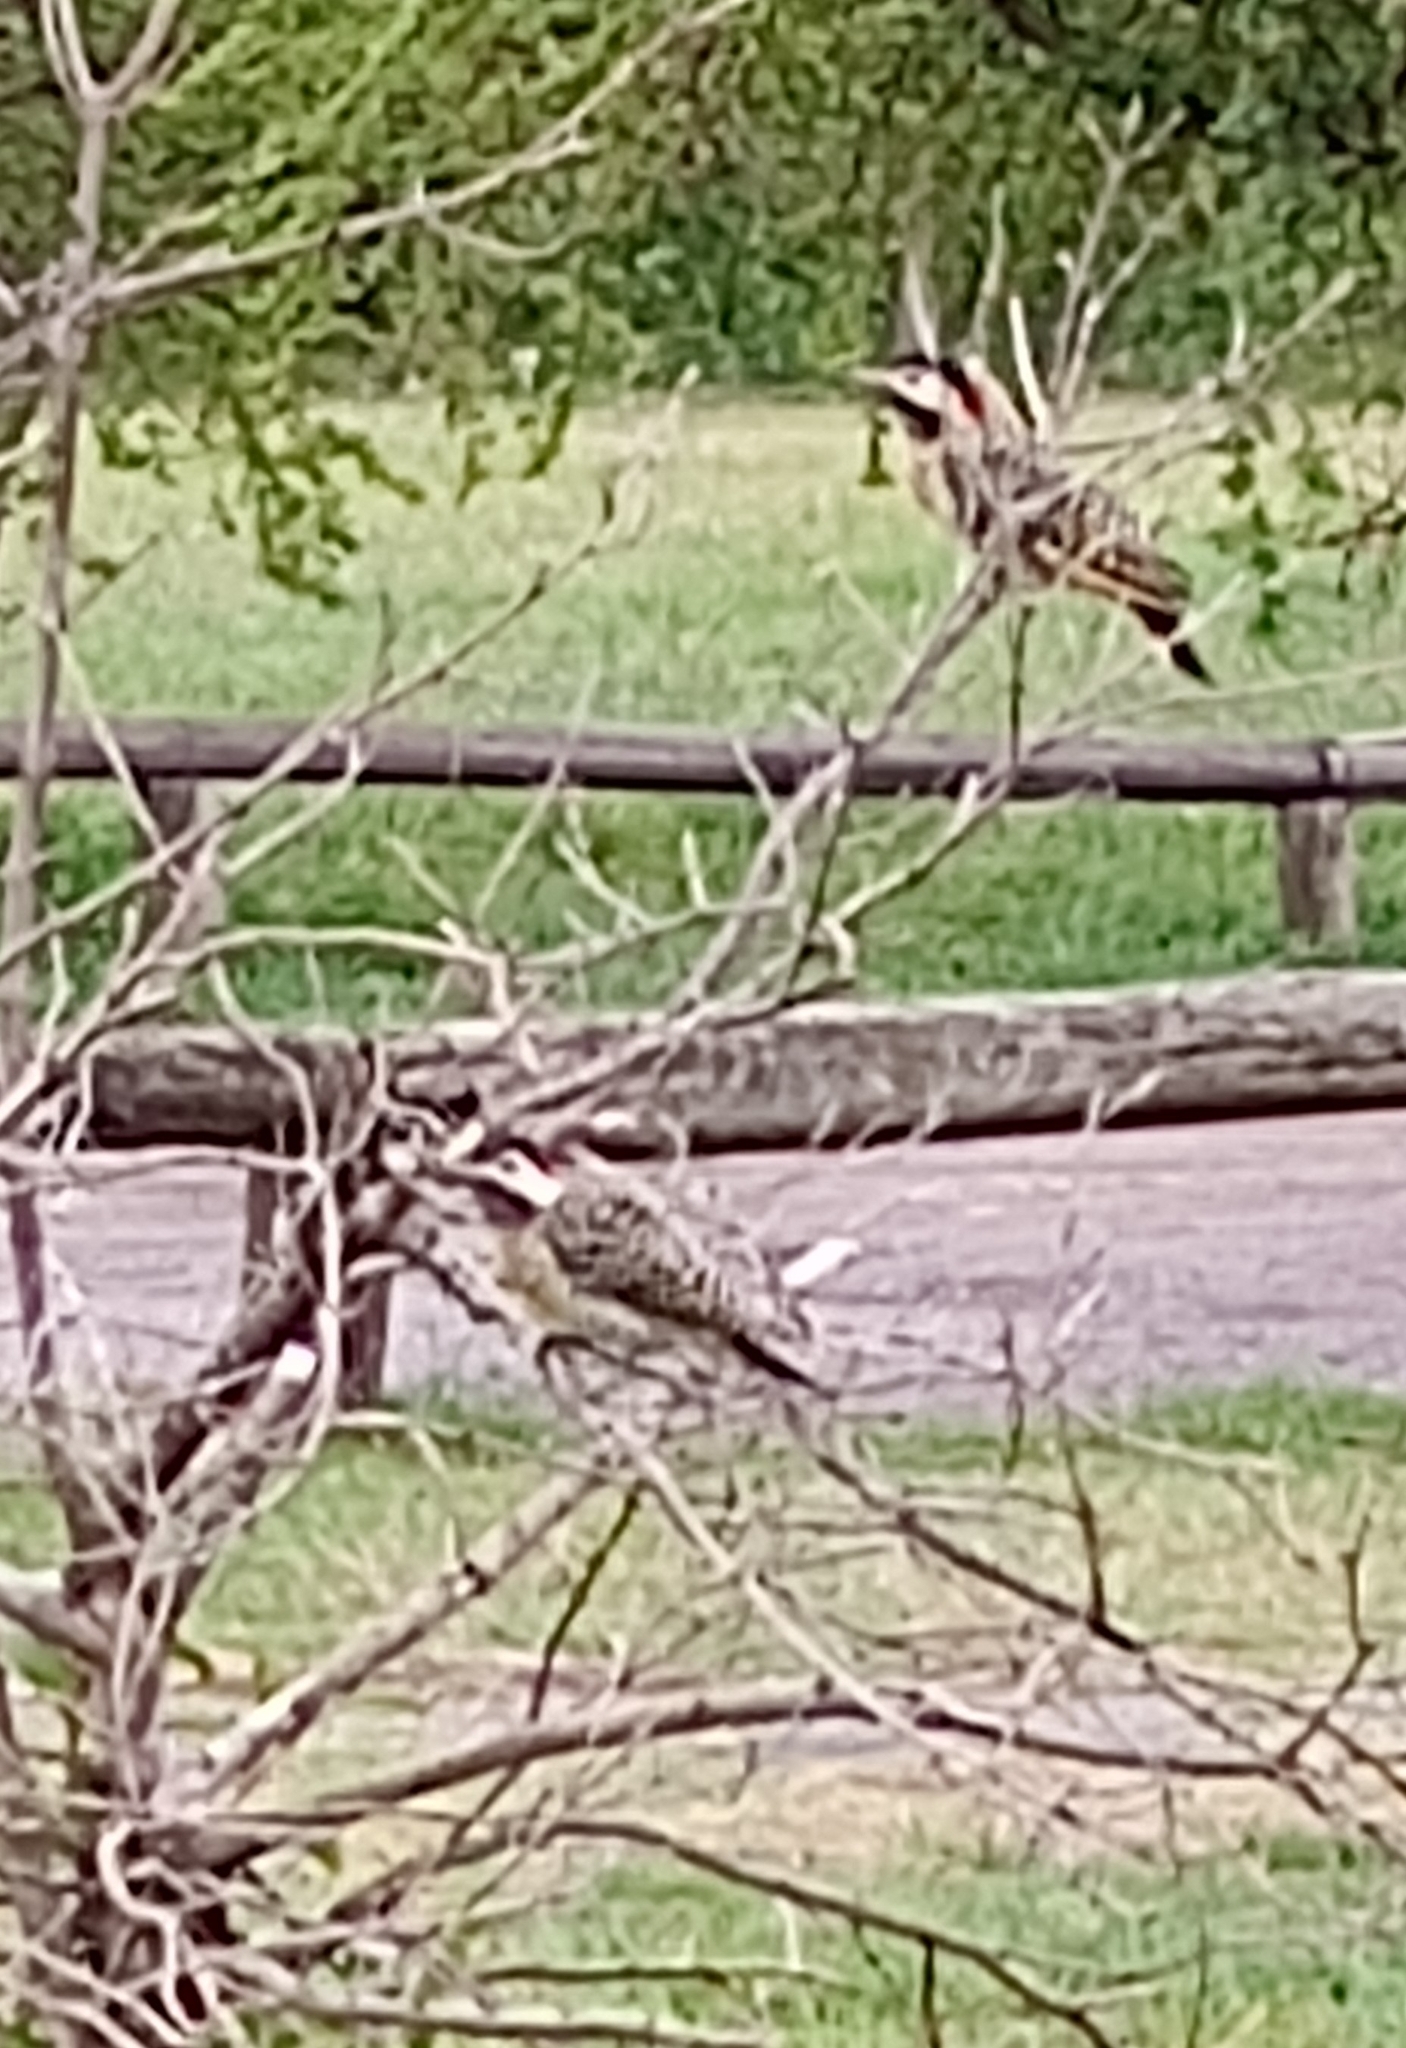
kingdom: Animalia
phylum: Chordata
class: Aves
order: Piciformes
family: Picidae
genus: Colaptes
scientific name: Colaptes melanochloros
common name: Green-barred woodpecker
